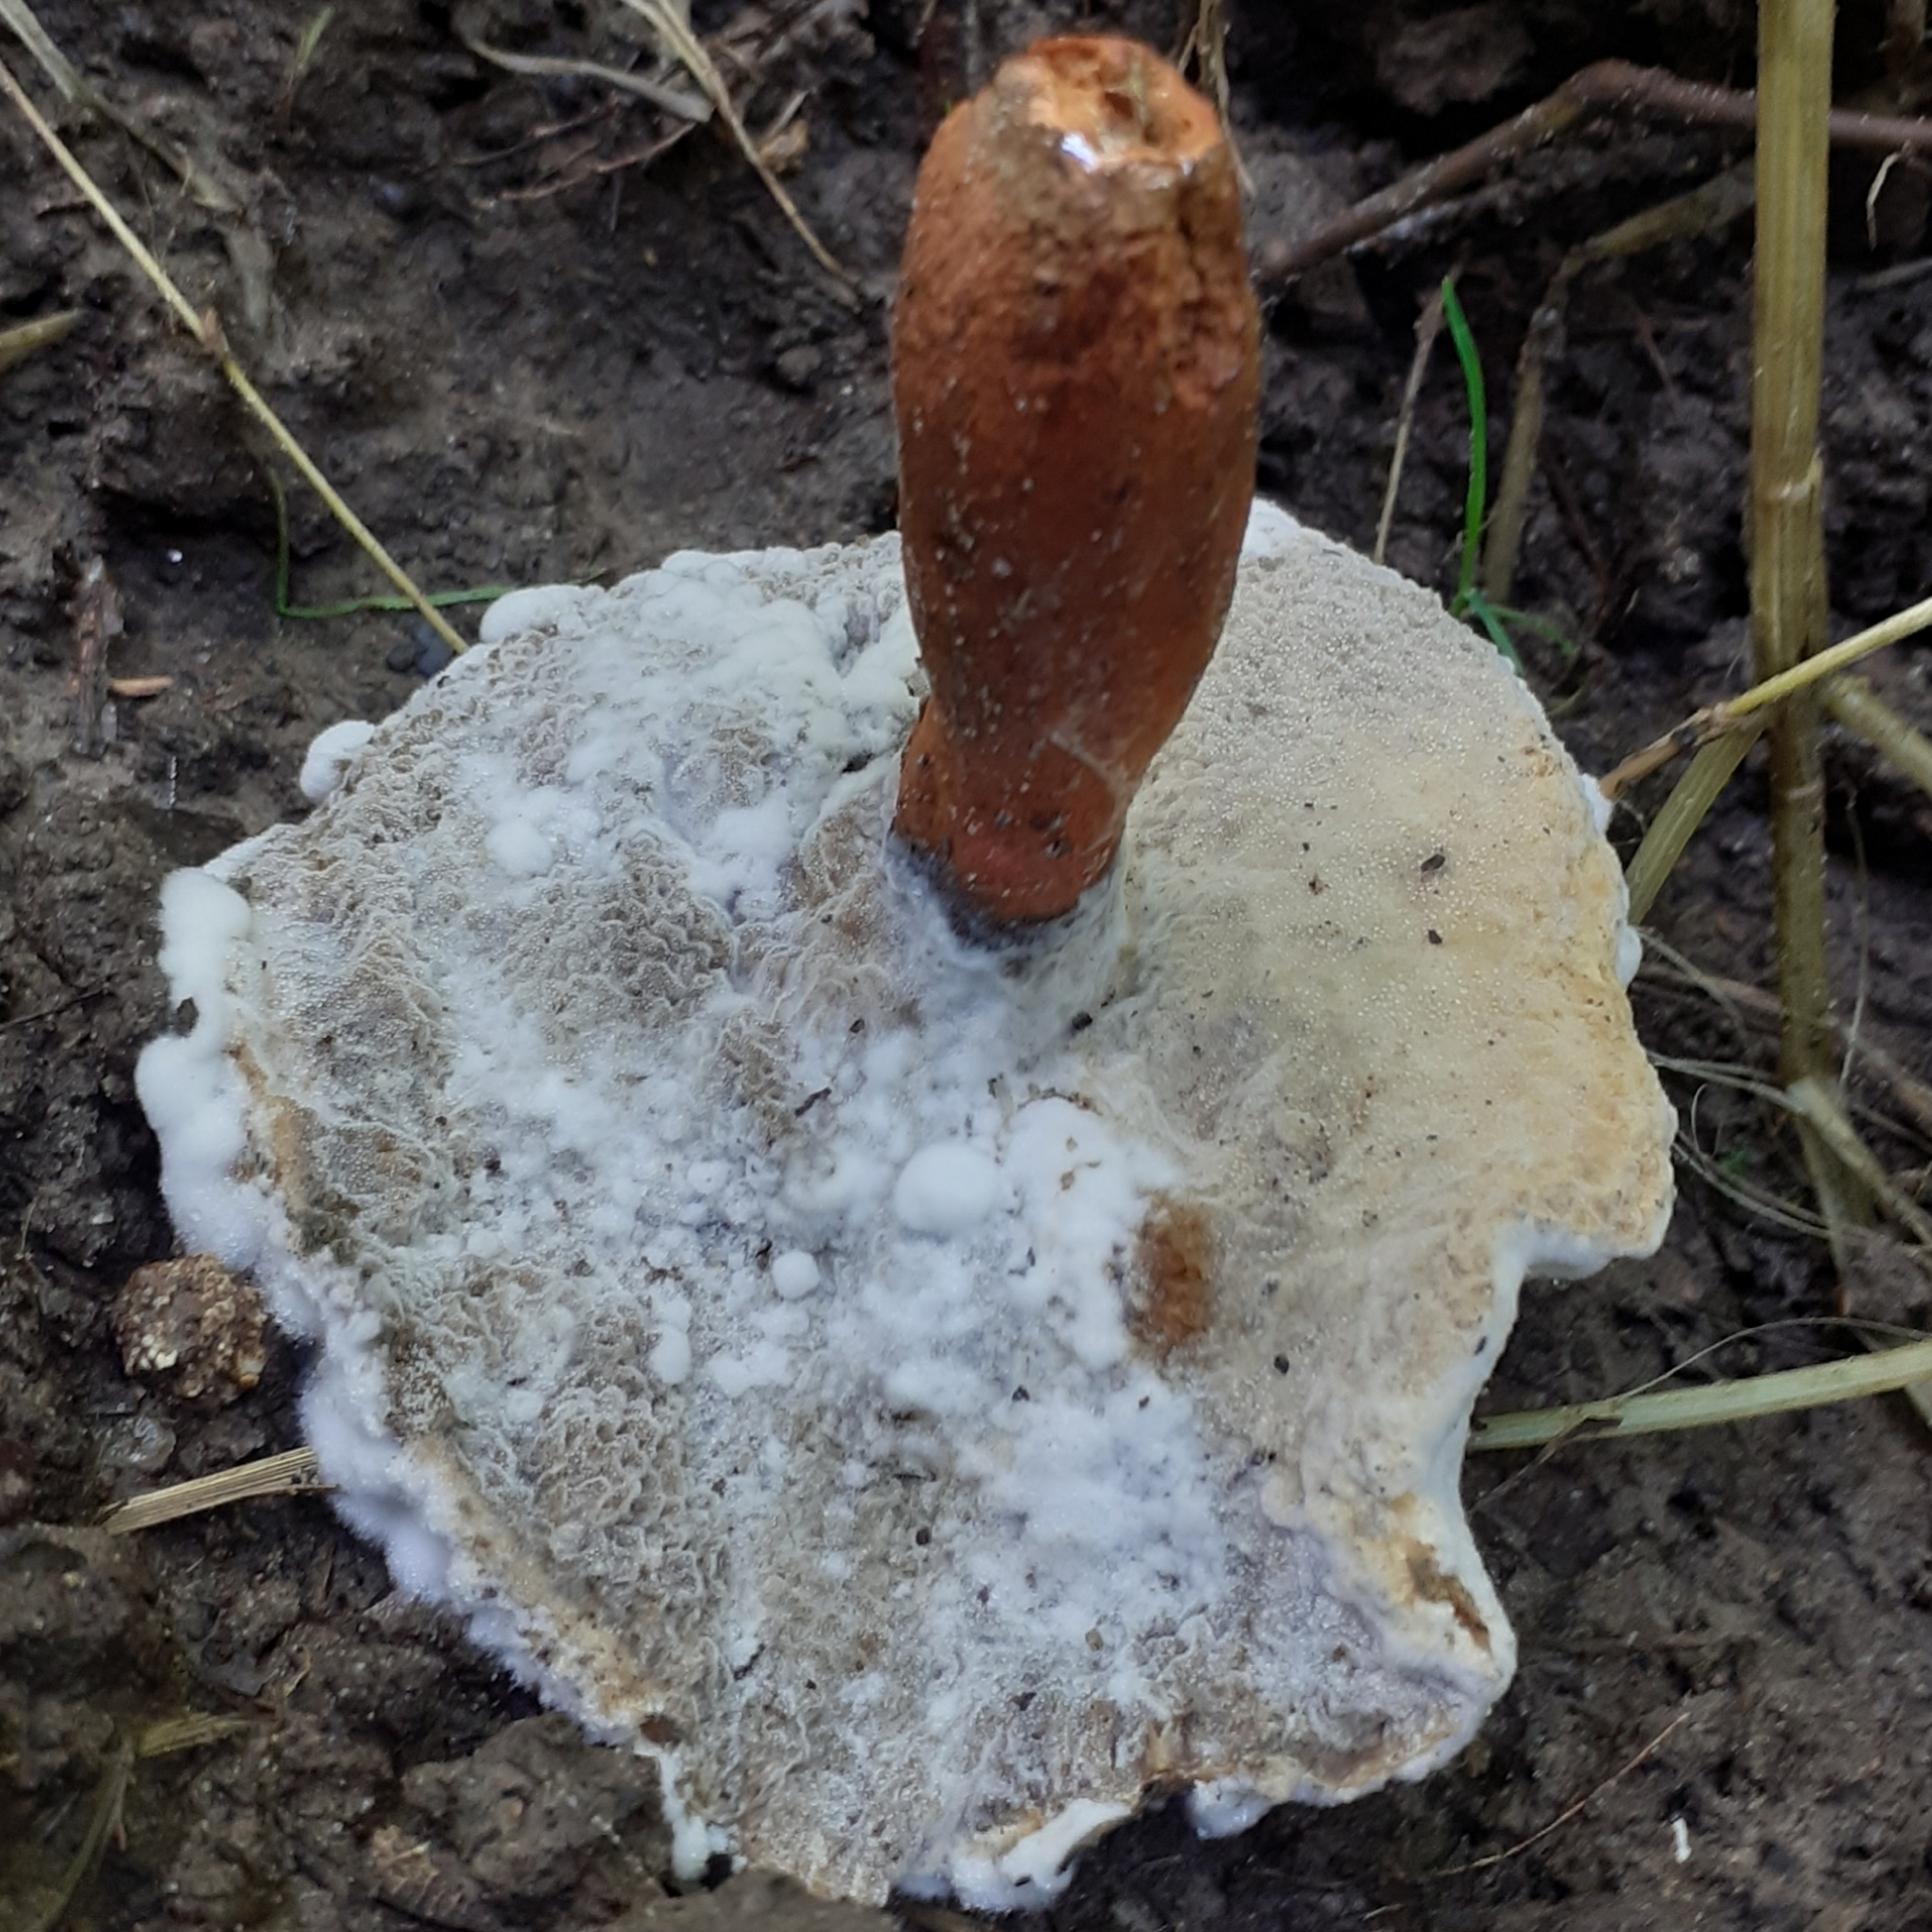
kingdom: Fungi
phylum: Ascomycota
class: Sordariomycetes
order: Hypocreales
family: Hypocreaceae
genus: Hypomyces
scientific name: Hypomyces chrysospermus
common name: Bolete mould
